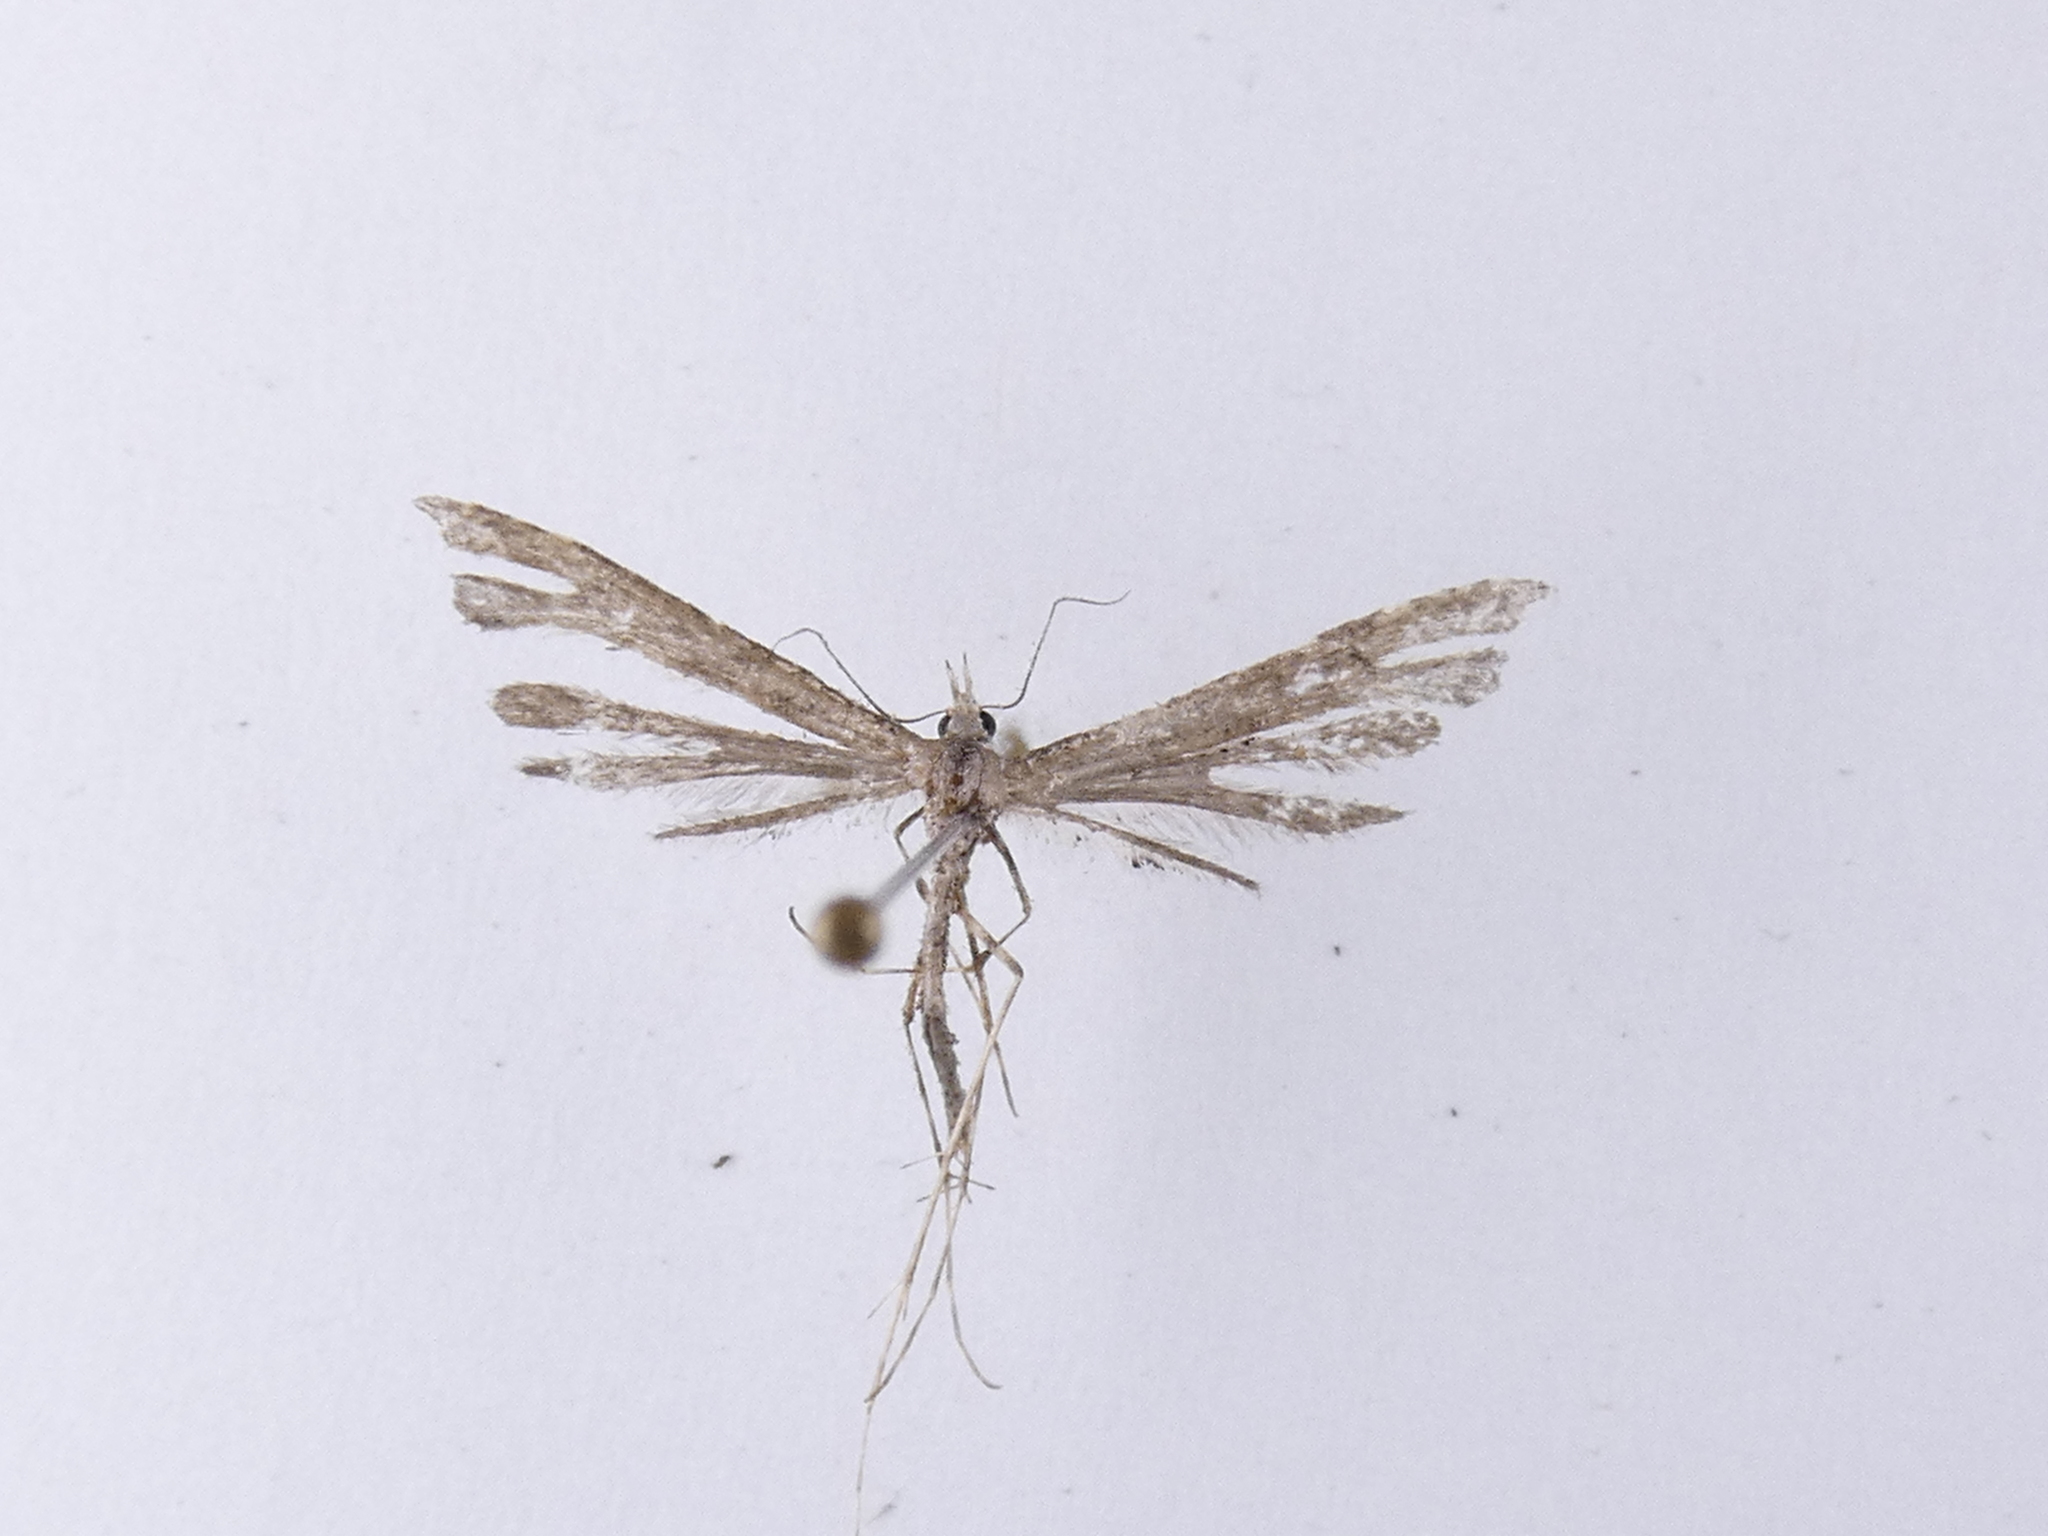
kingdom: Animalia
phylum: Arthropoda
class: Insecta
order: Lepidoptera
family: Pterophoridae
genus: Amblyptilia
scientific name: Amblyptilia repletalis
